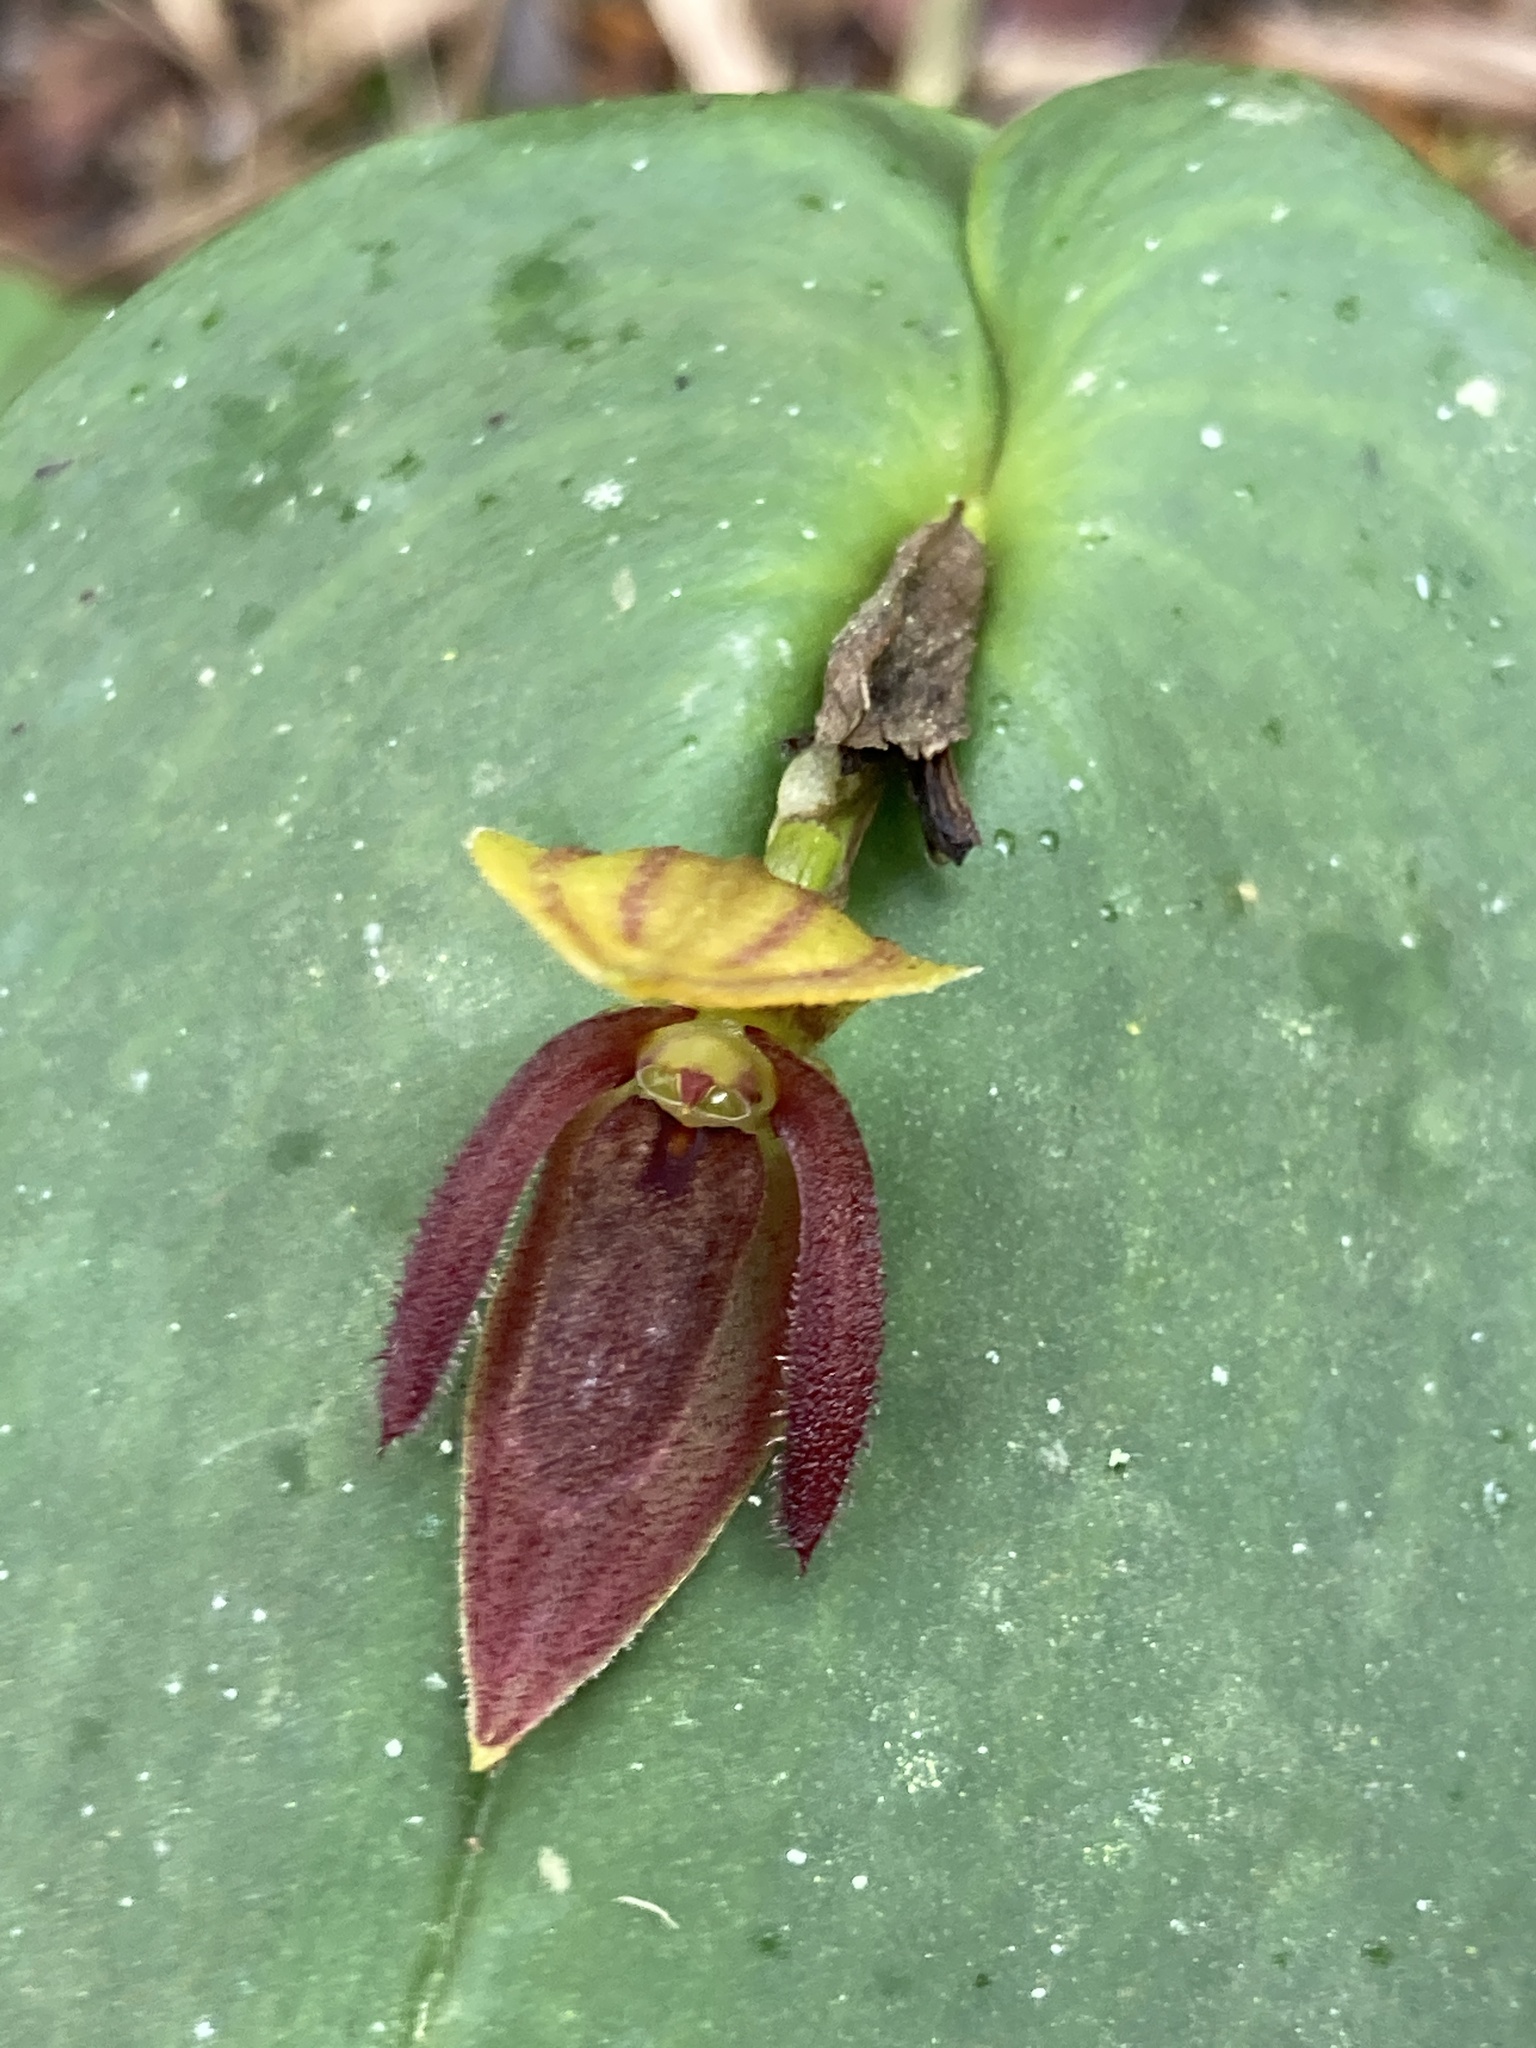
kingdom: Plantae
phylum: Tracheophyta
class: Liliopsida
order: Asparagales
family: Orchidaceae
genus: Pleurothallis
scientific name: Pleurothallis adonis
